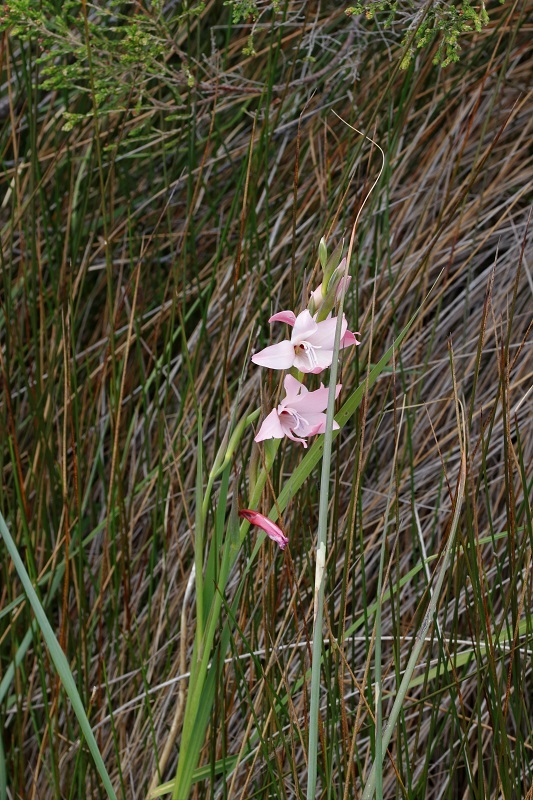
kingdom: Plantae
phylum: Tracheophyta
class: Liliopsida
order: Asparagales
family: Iridaceae
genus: Gladiolus
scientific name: Gladiolus carneus
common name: Painted-lady
